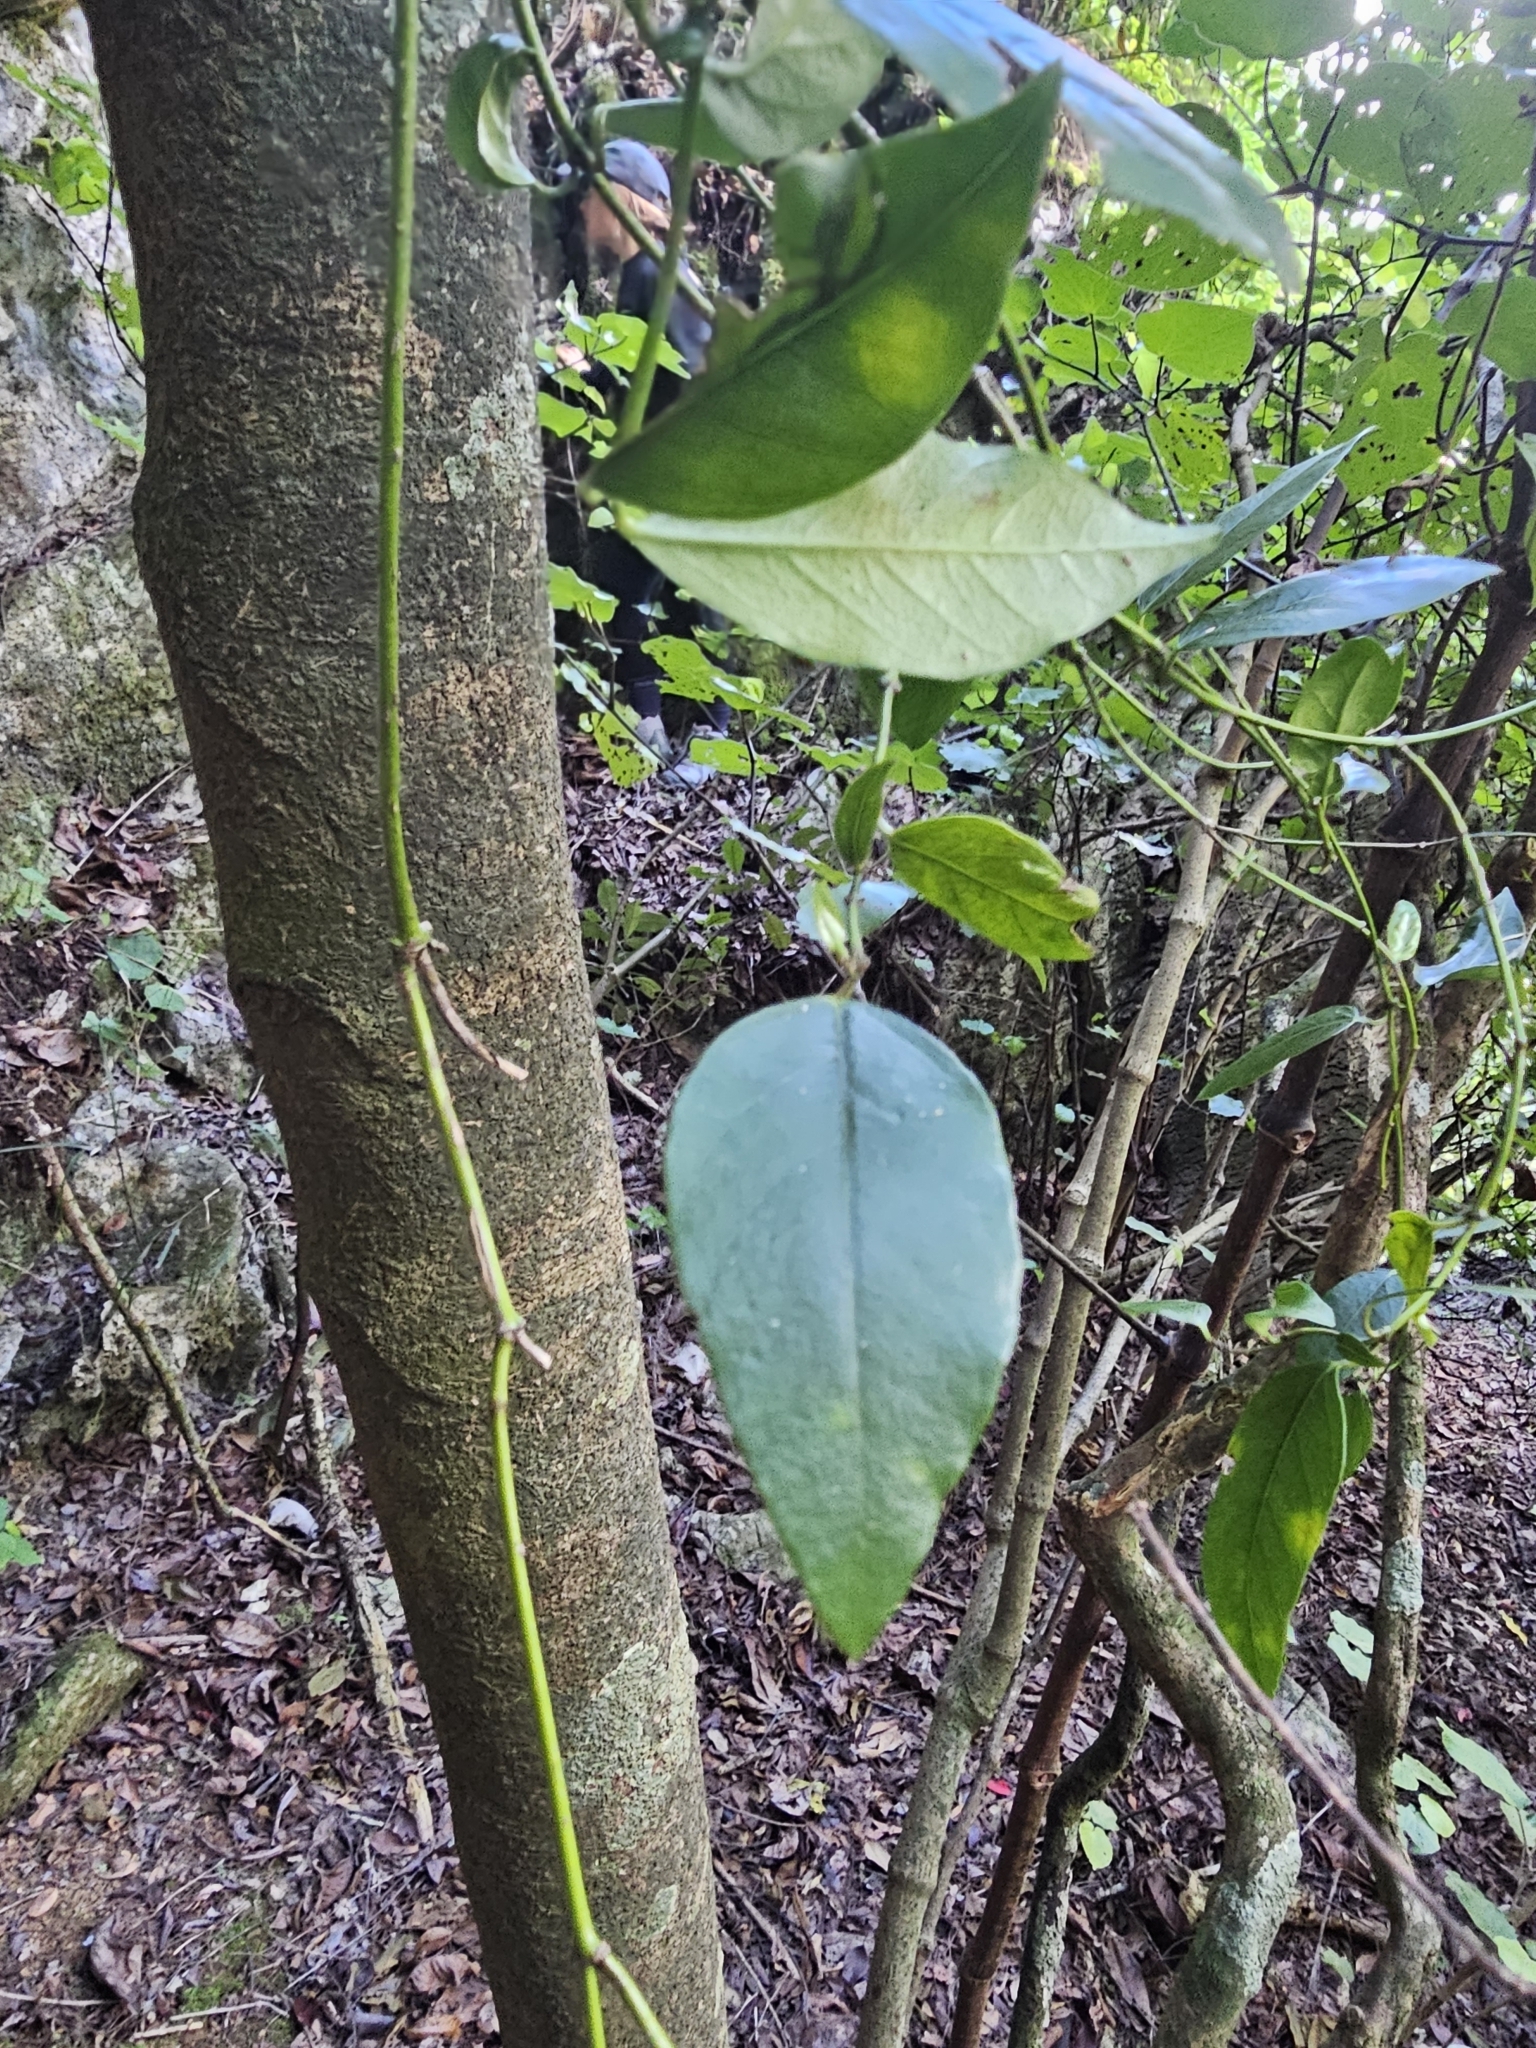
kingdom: Plantae
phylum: Tracheophyta
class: Magnoliopsida
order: Malpighiales
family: Passifloraceae
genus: Passiflora
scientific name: Passiflora tetrandra
